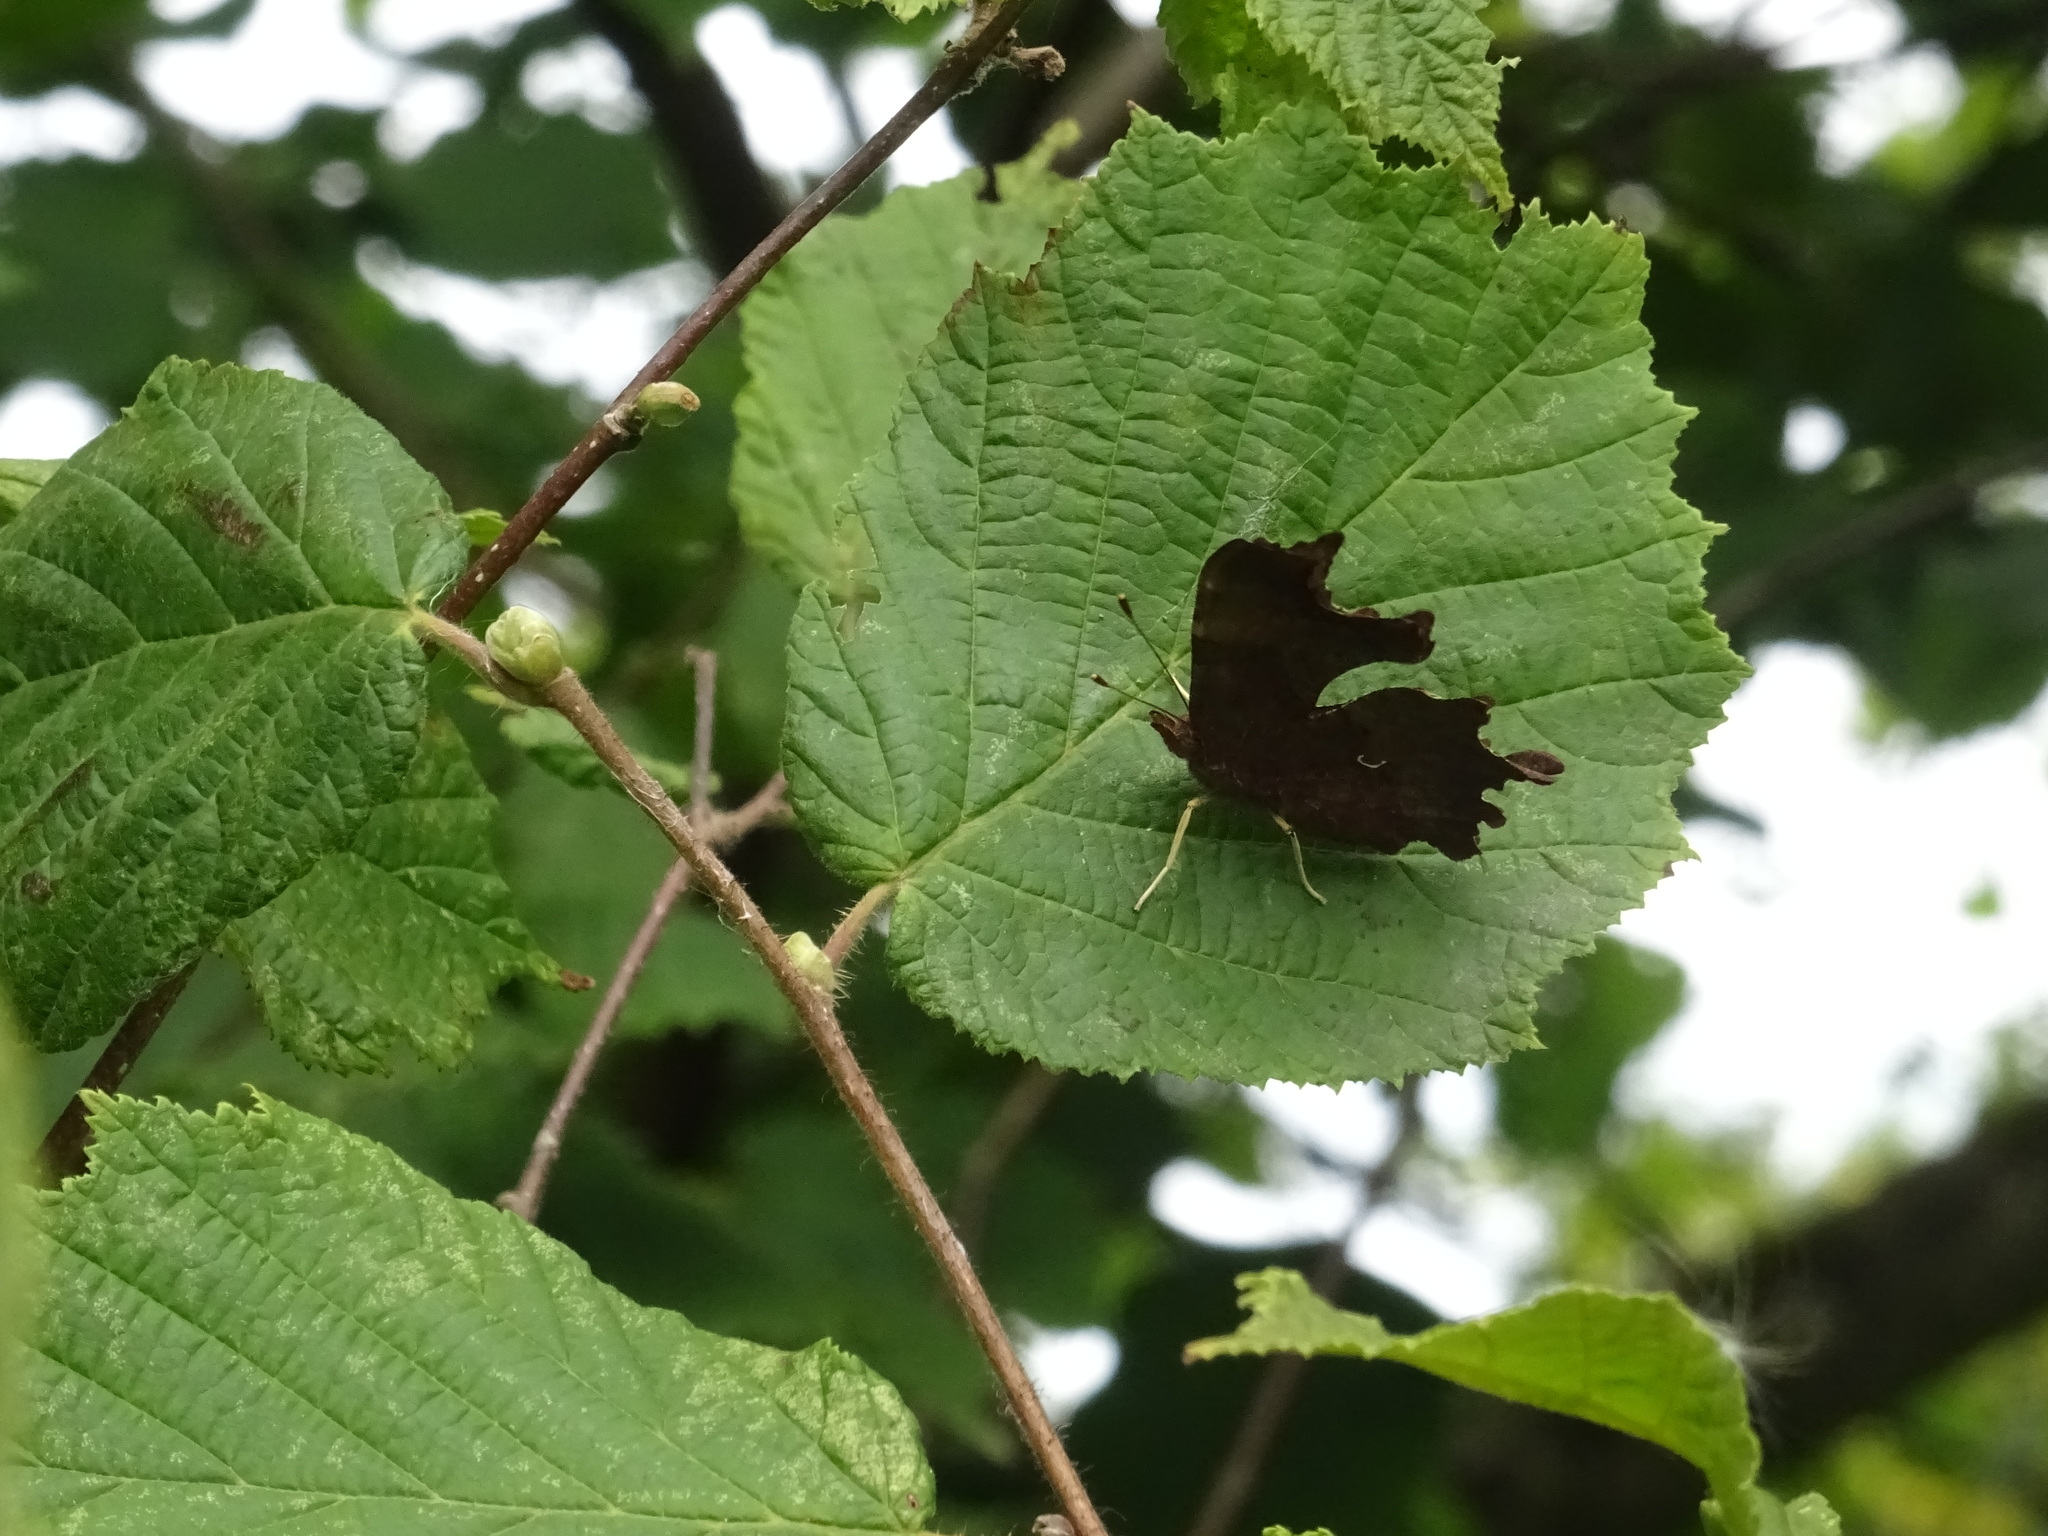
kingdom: Animalia
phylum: Arthropoda
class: Insecta
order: Lepidoptera
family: Nymphalidae
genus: Polygonia
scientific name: Polygonia c-album
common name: Comma
